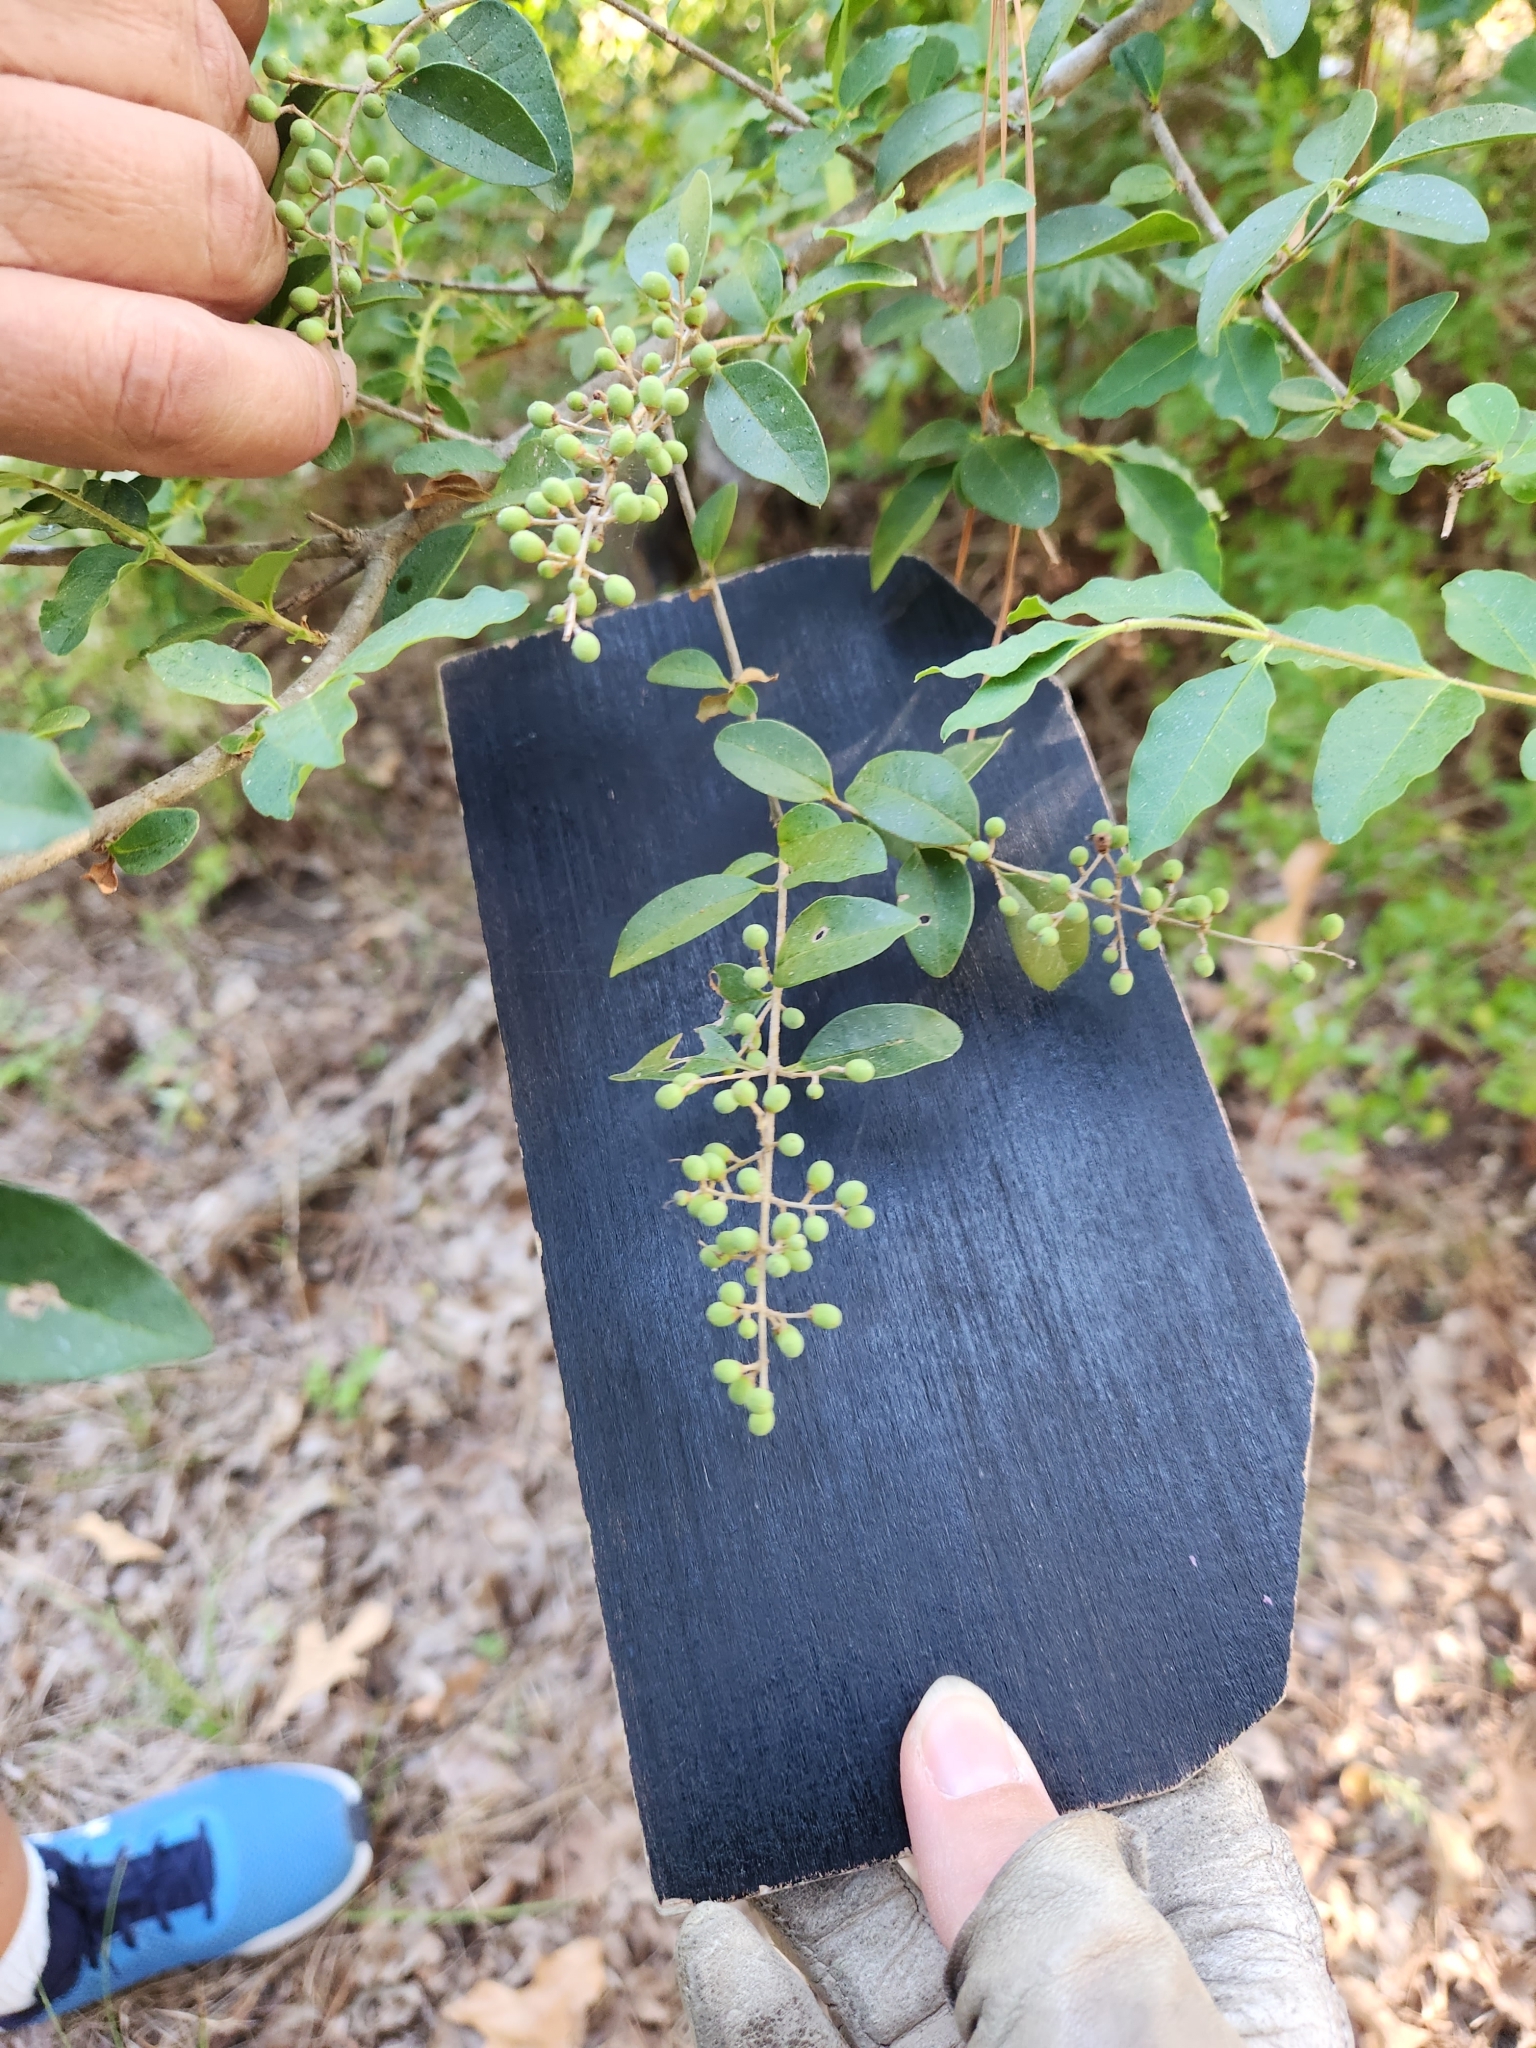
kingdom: Plantae
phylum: Tracheophyta
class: Magnoliopsida
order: Lamiales
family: Oleaceae
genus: Ligustrum
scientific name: Ligustrum sinense
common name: Chinese privet
